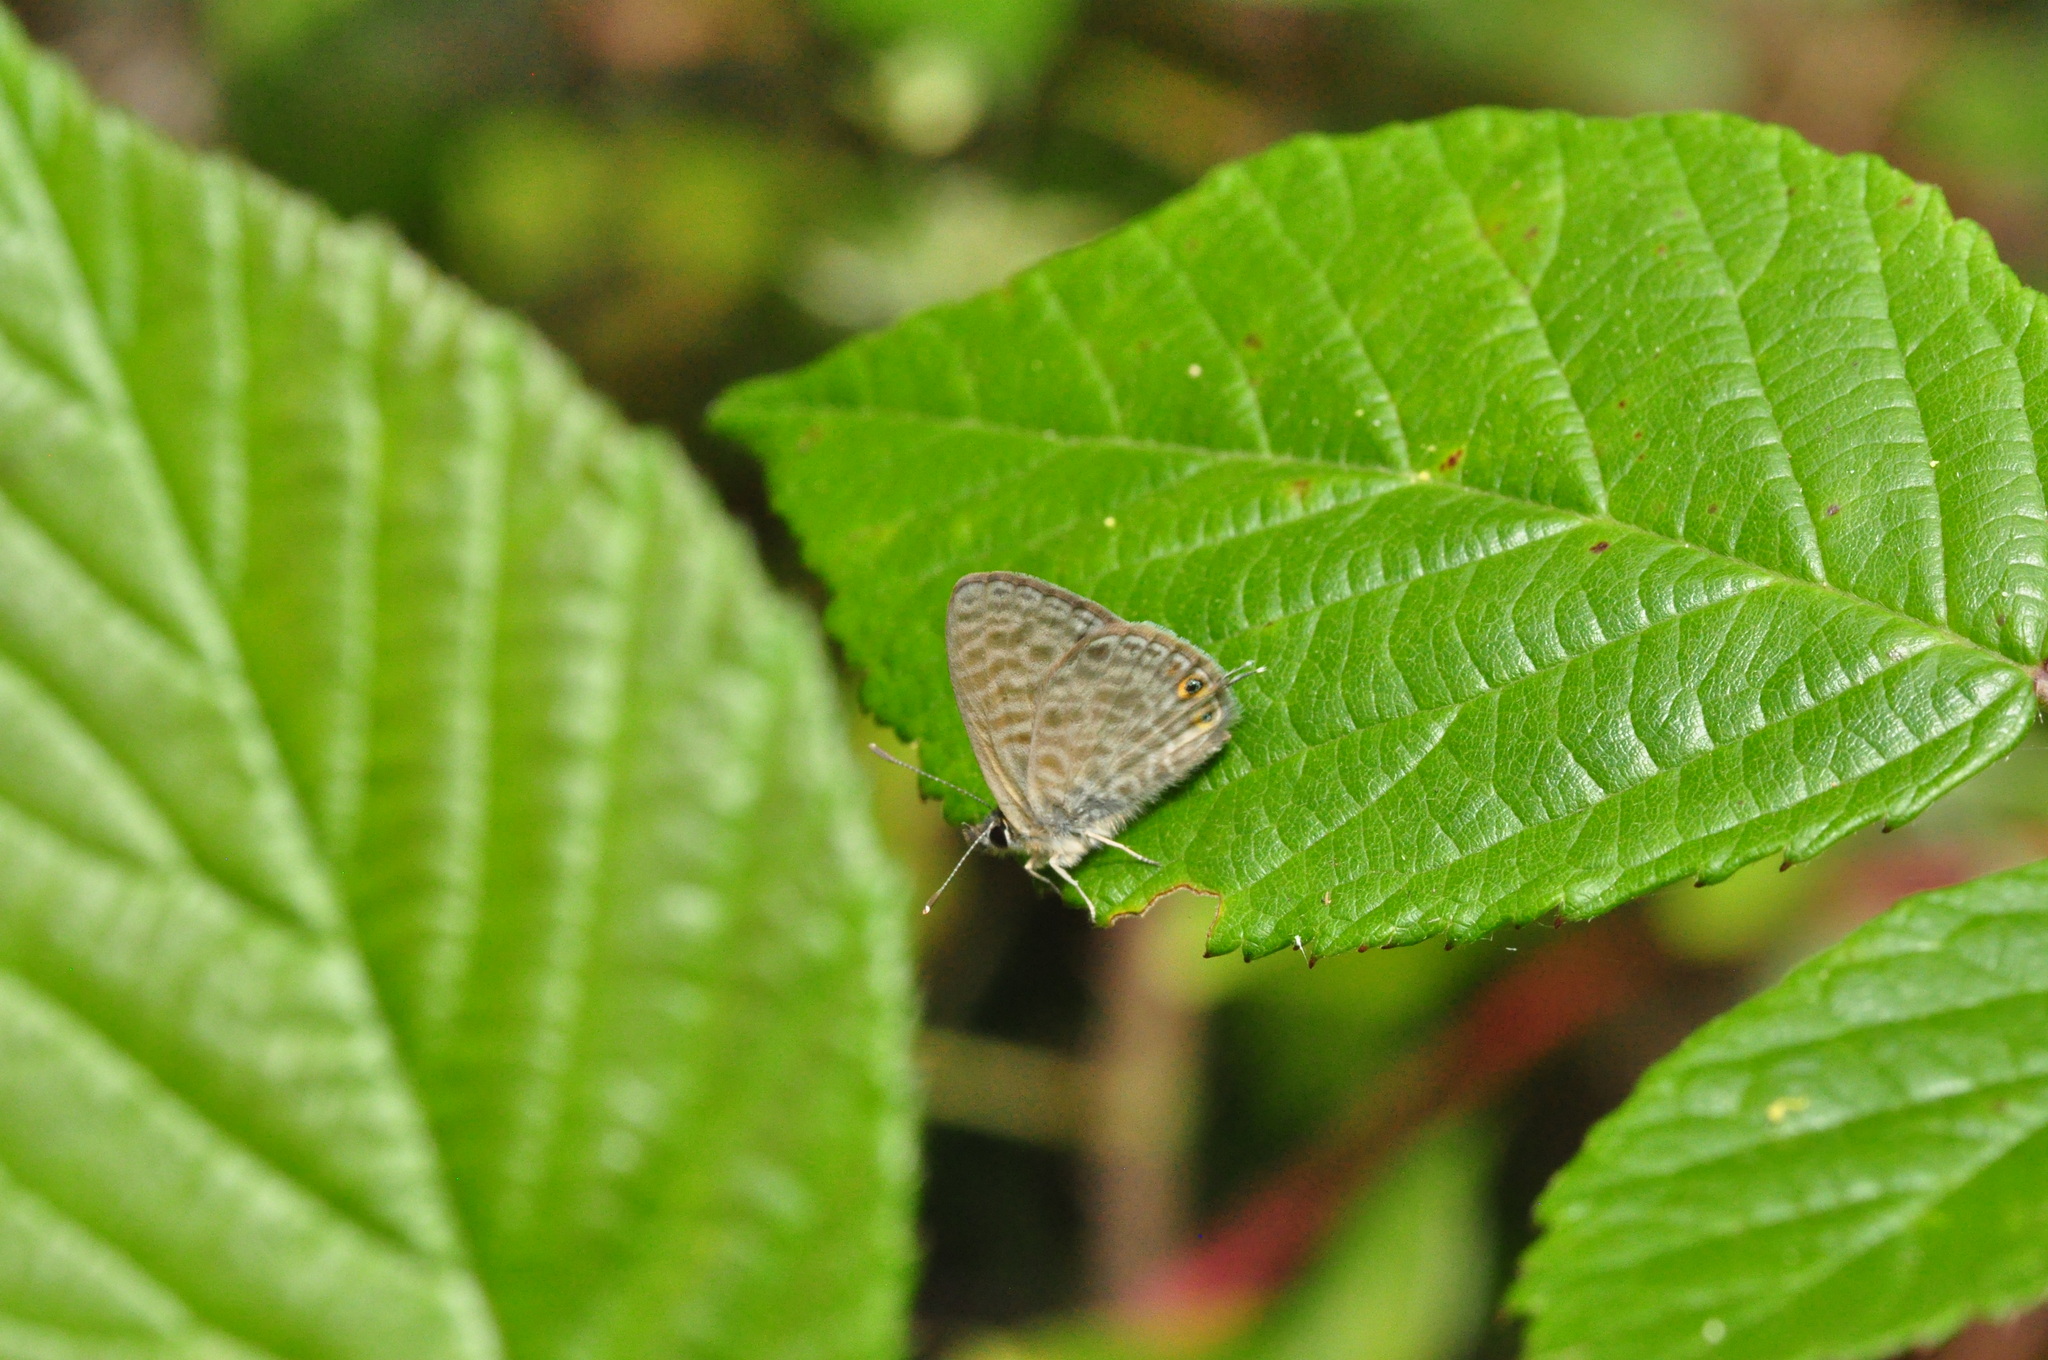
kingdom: Animalia
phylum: Arthropoda
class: Insecta
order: Lepidoptera
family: Lycaenidae
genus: Leptotes
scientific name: Leptotes pirithous
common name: Lang's short-tailed blue
